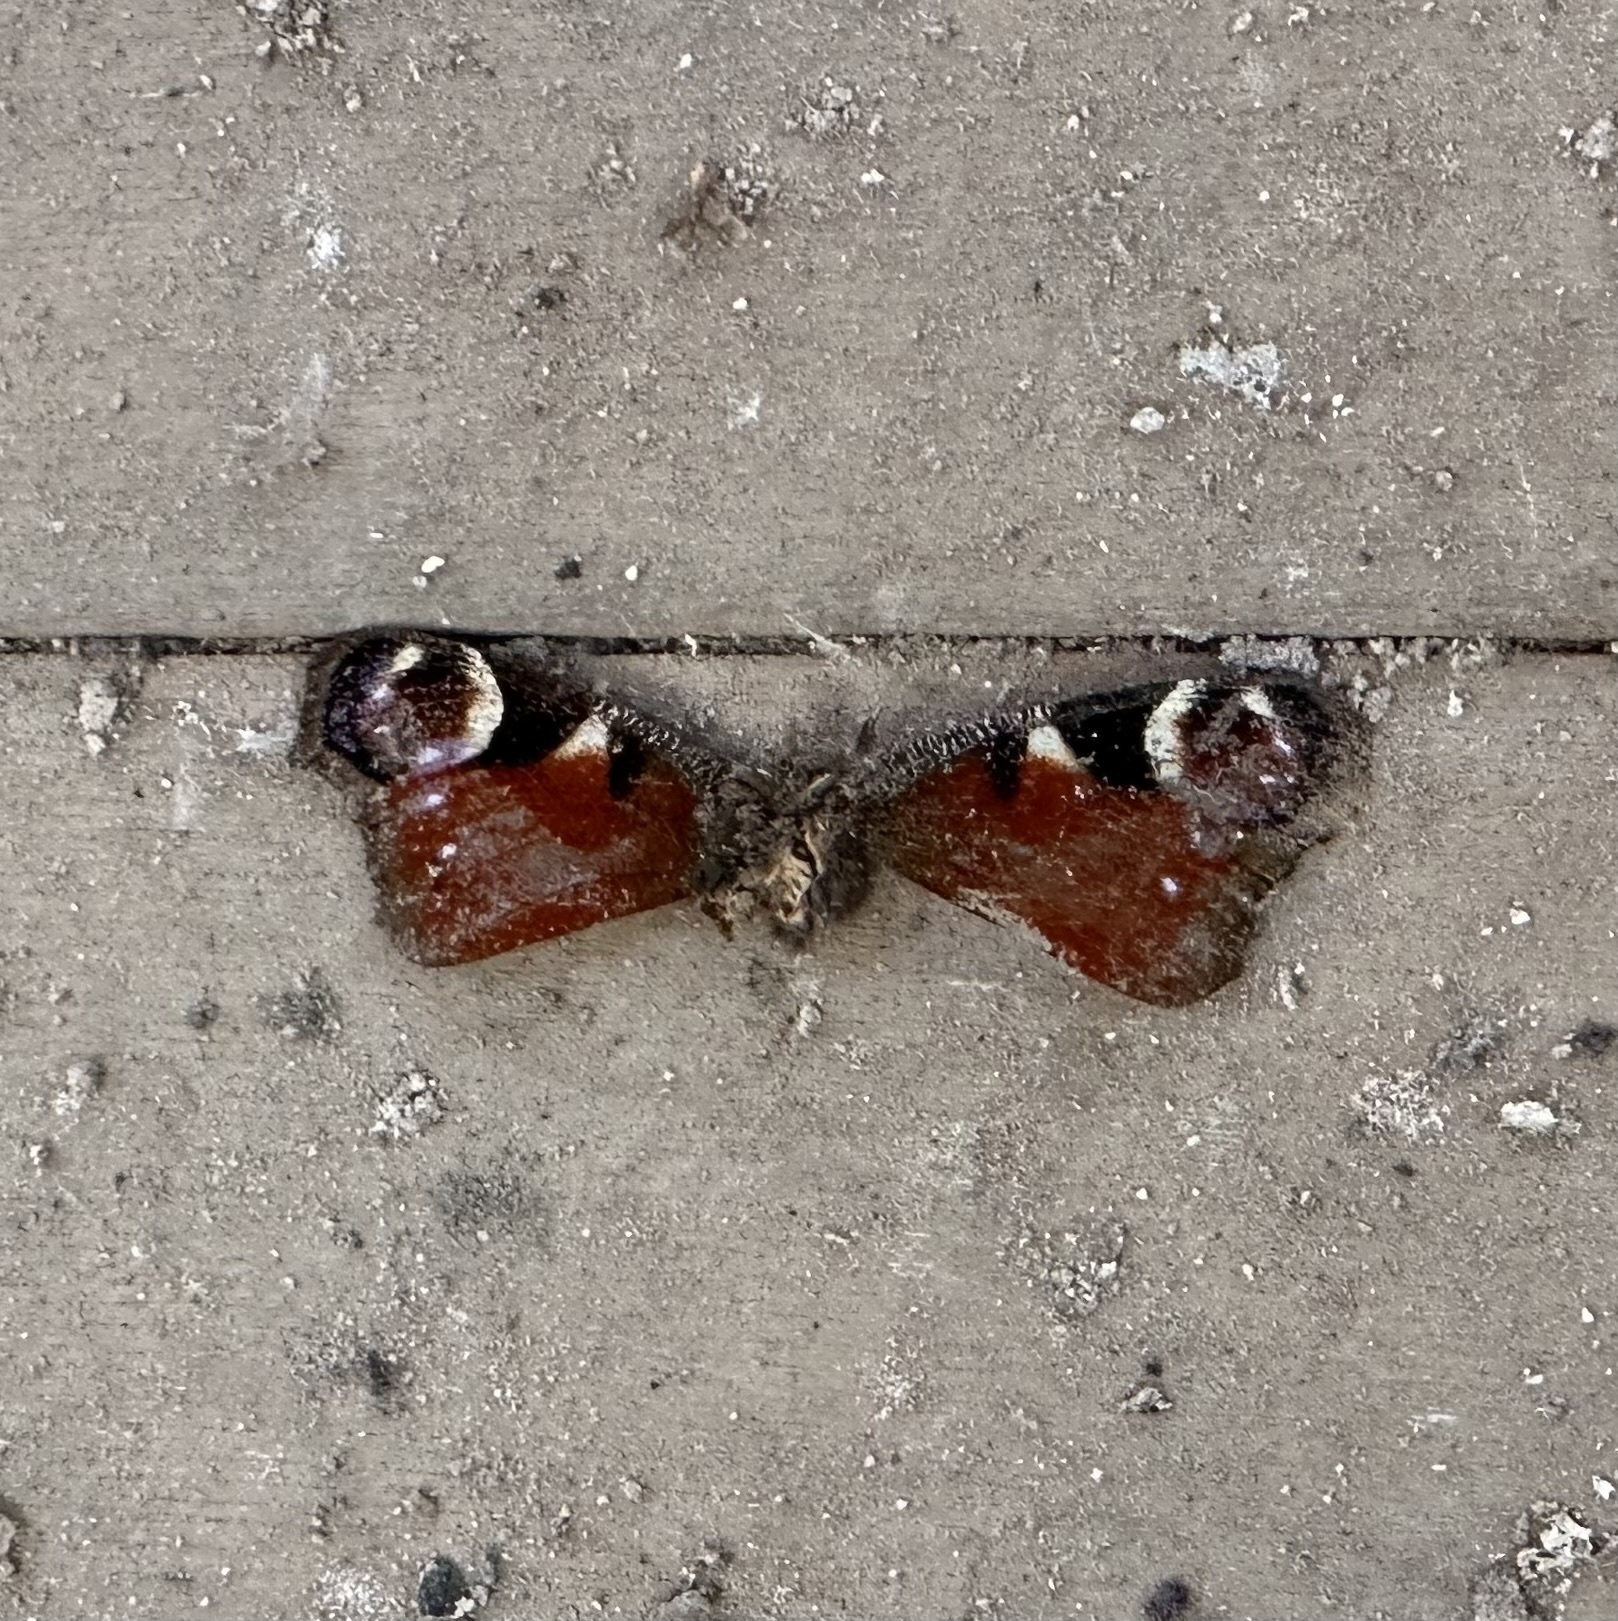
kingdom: Animalia
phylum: Arthropoda
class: Insecta
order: Lepidoptera
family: Nymphalidae
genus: Aglais
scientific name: Aglais io
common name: Peacock
